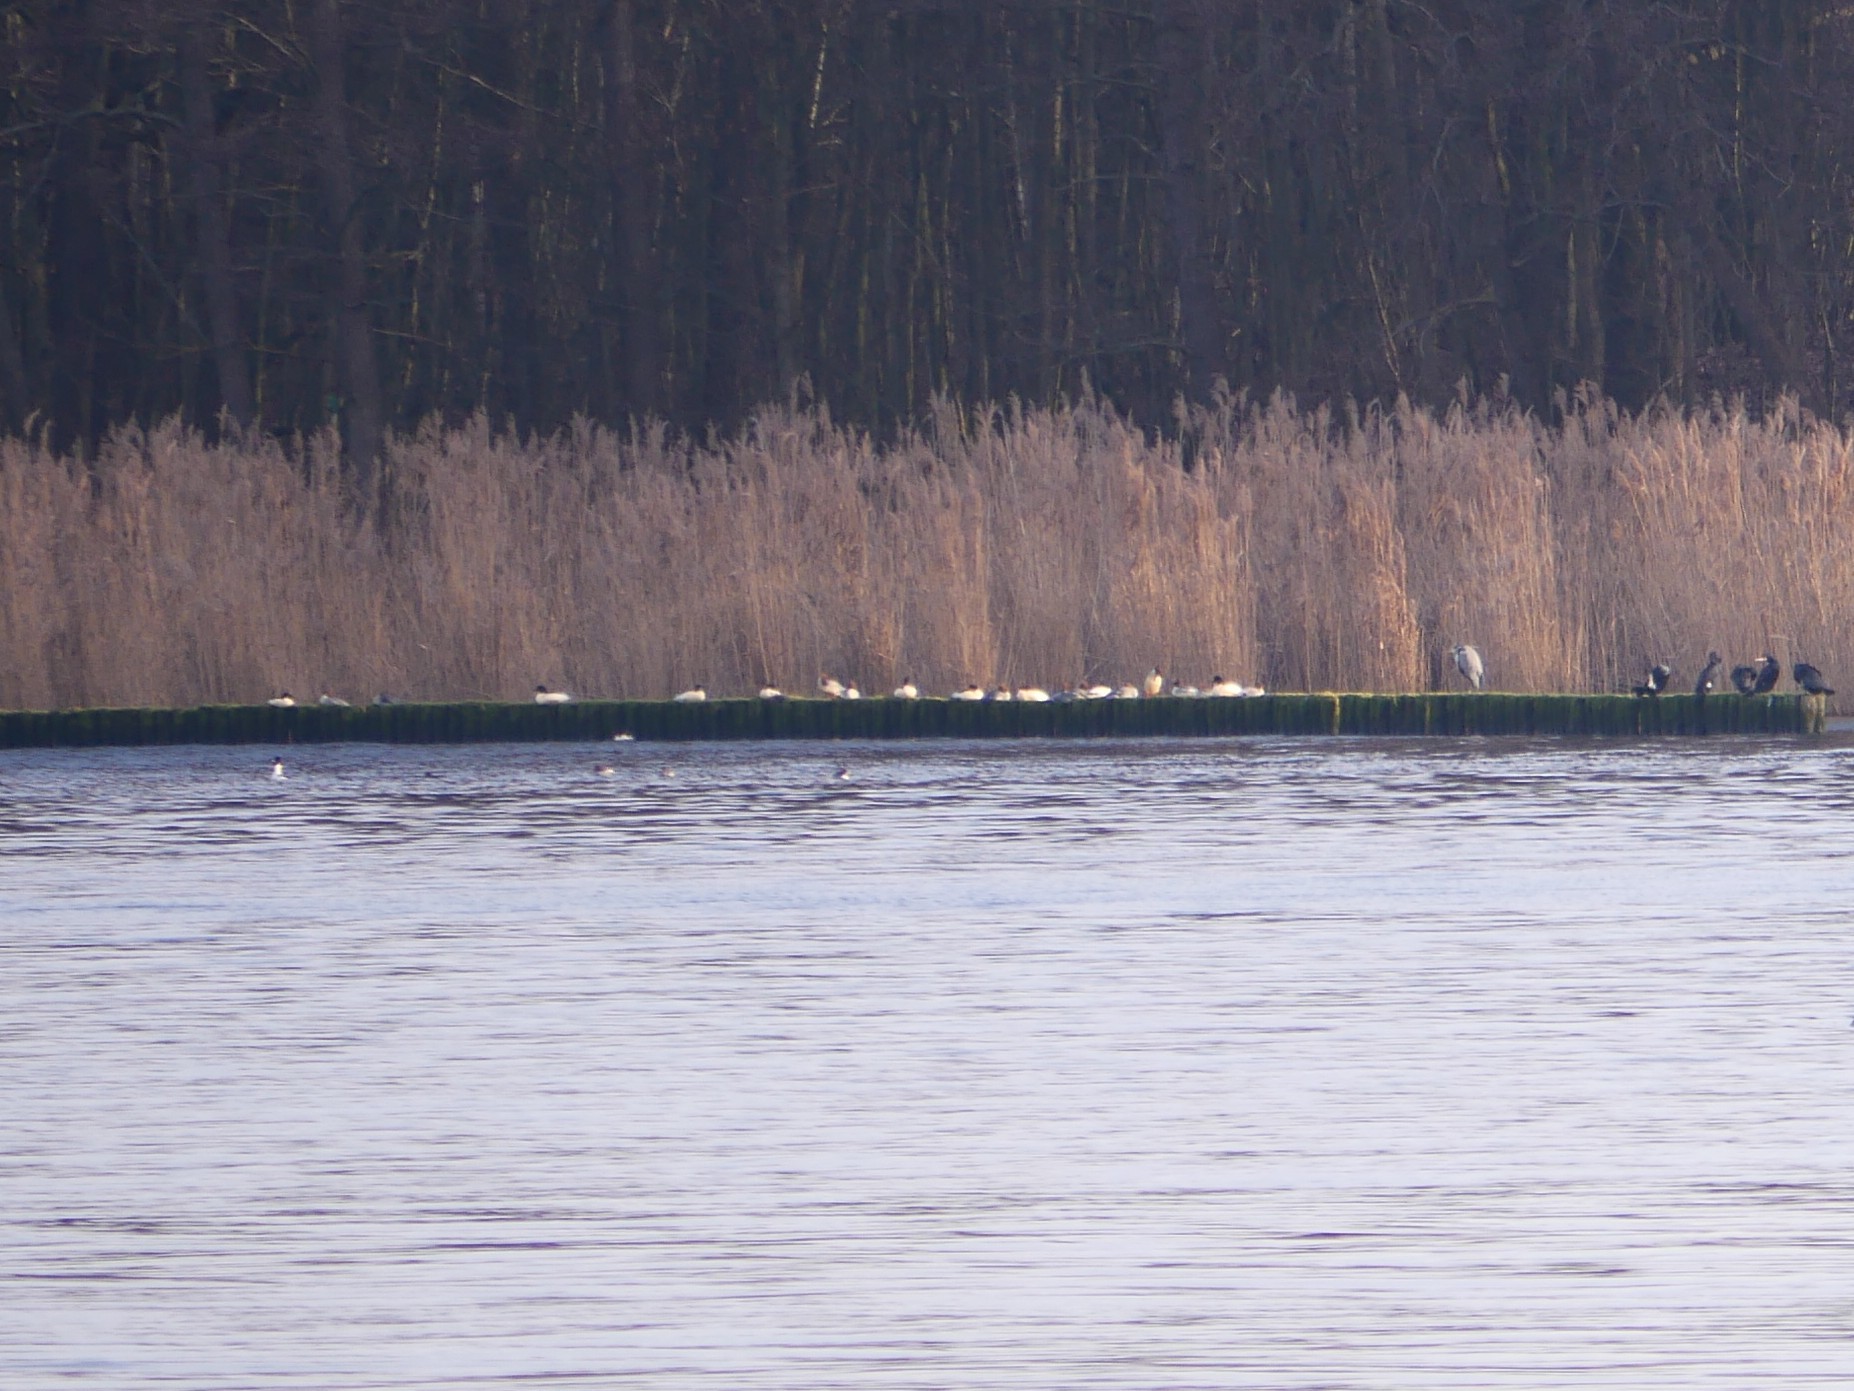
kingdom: Animalia
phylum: Chordata
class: Aves
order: Anseriformes
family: Anatidae
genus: Mergus
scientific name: Mergus merganser
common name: Common merganser
